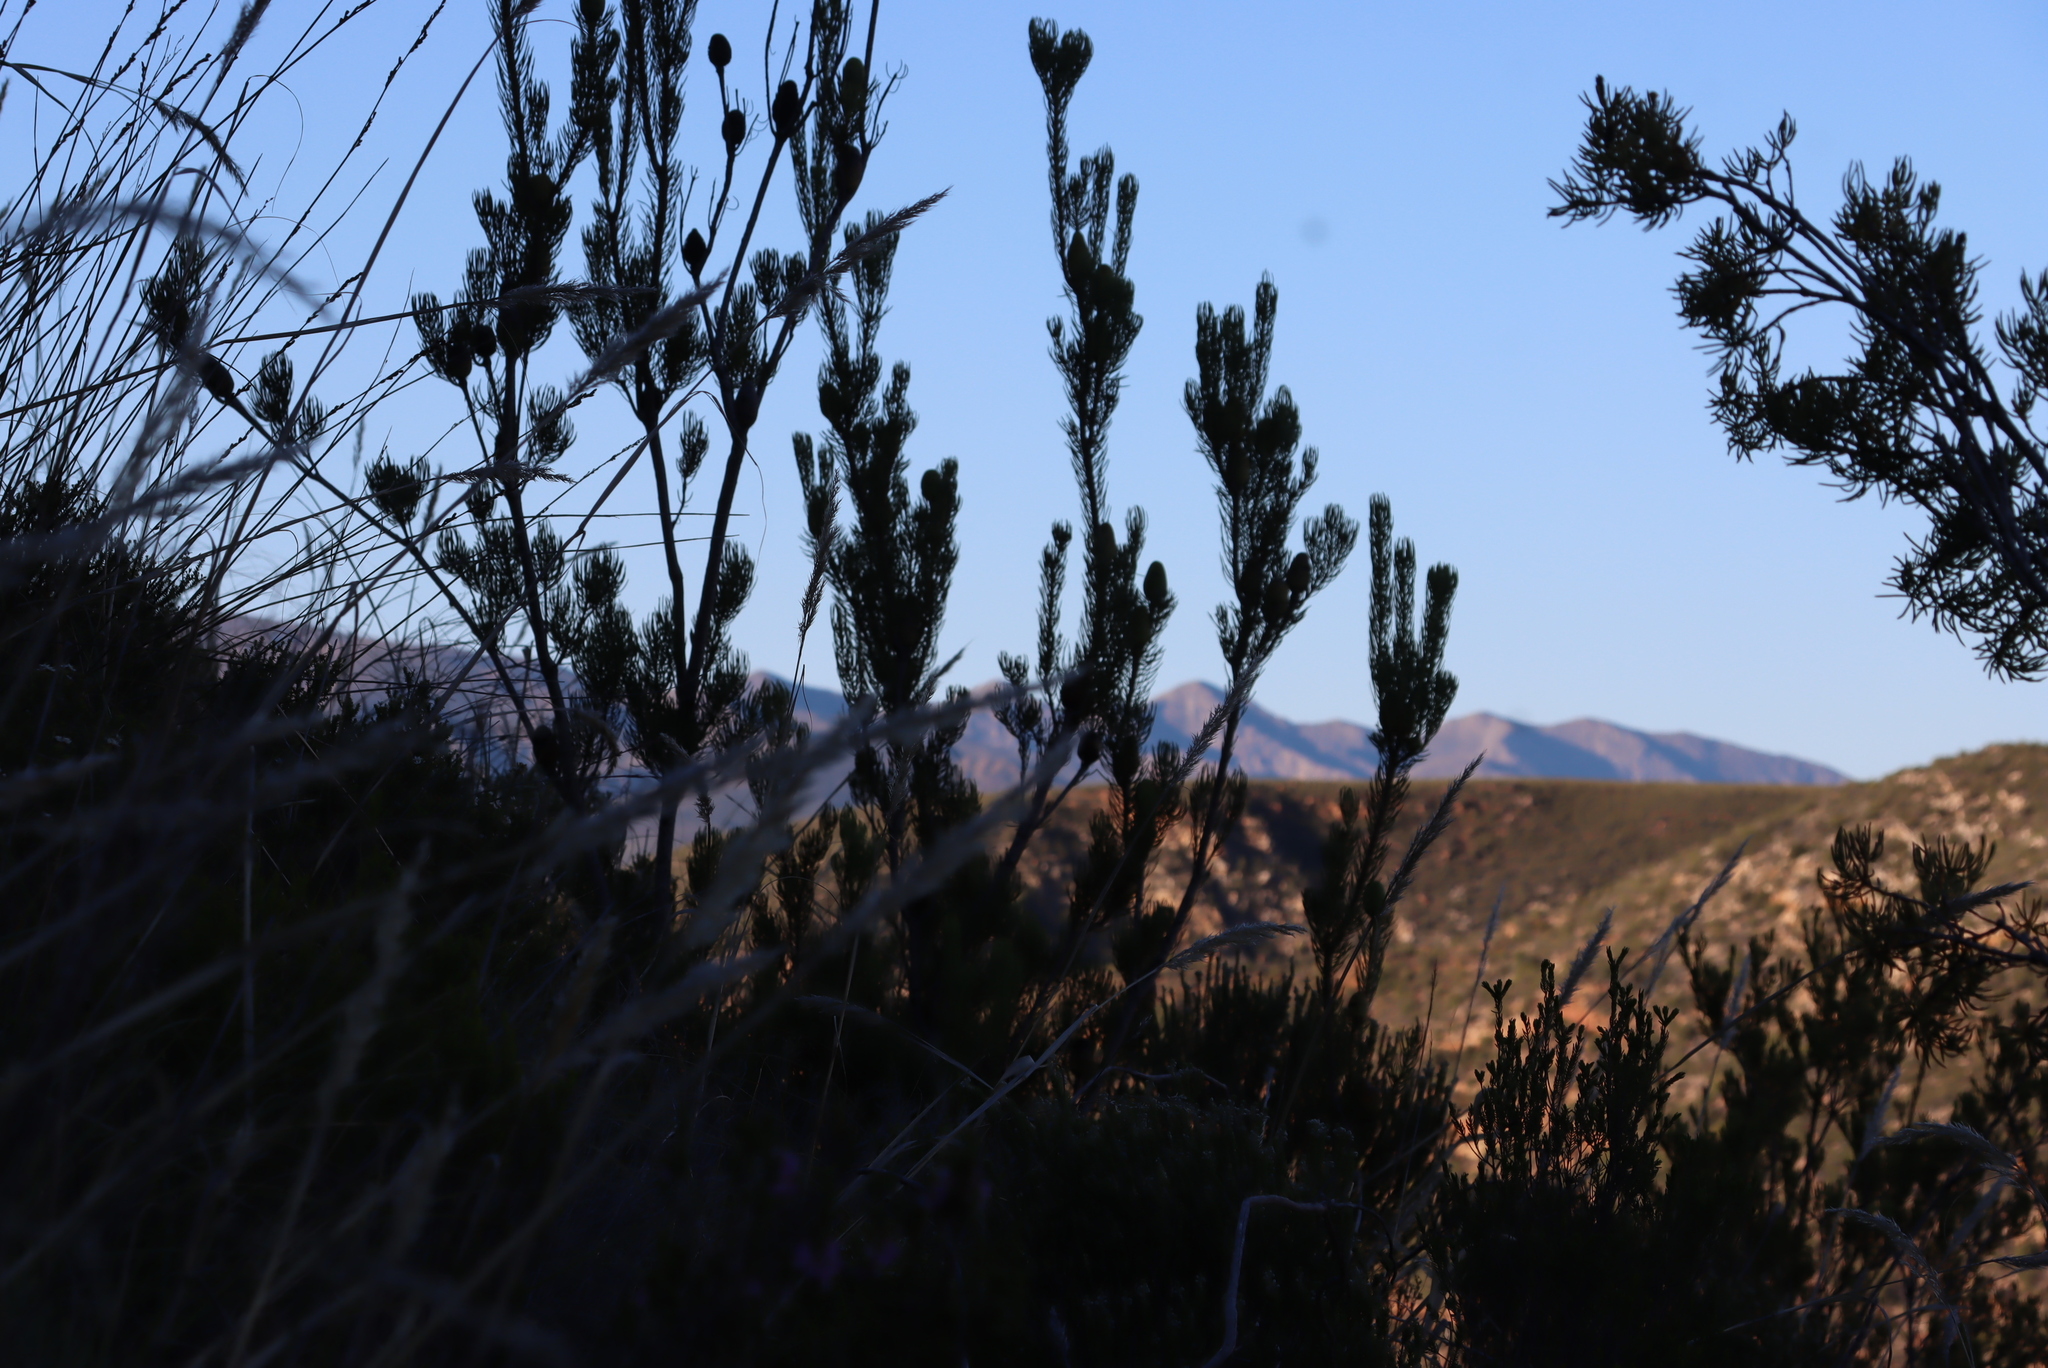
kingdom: Plantae
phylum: Tracheophyta
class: Magnoliopsida
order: Proteales
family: Proteaceae
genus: Leucadendron
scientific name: Leucadendron nobile
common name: Karoo conebush
